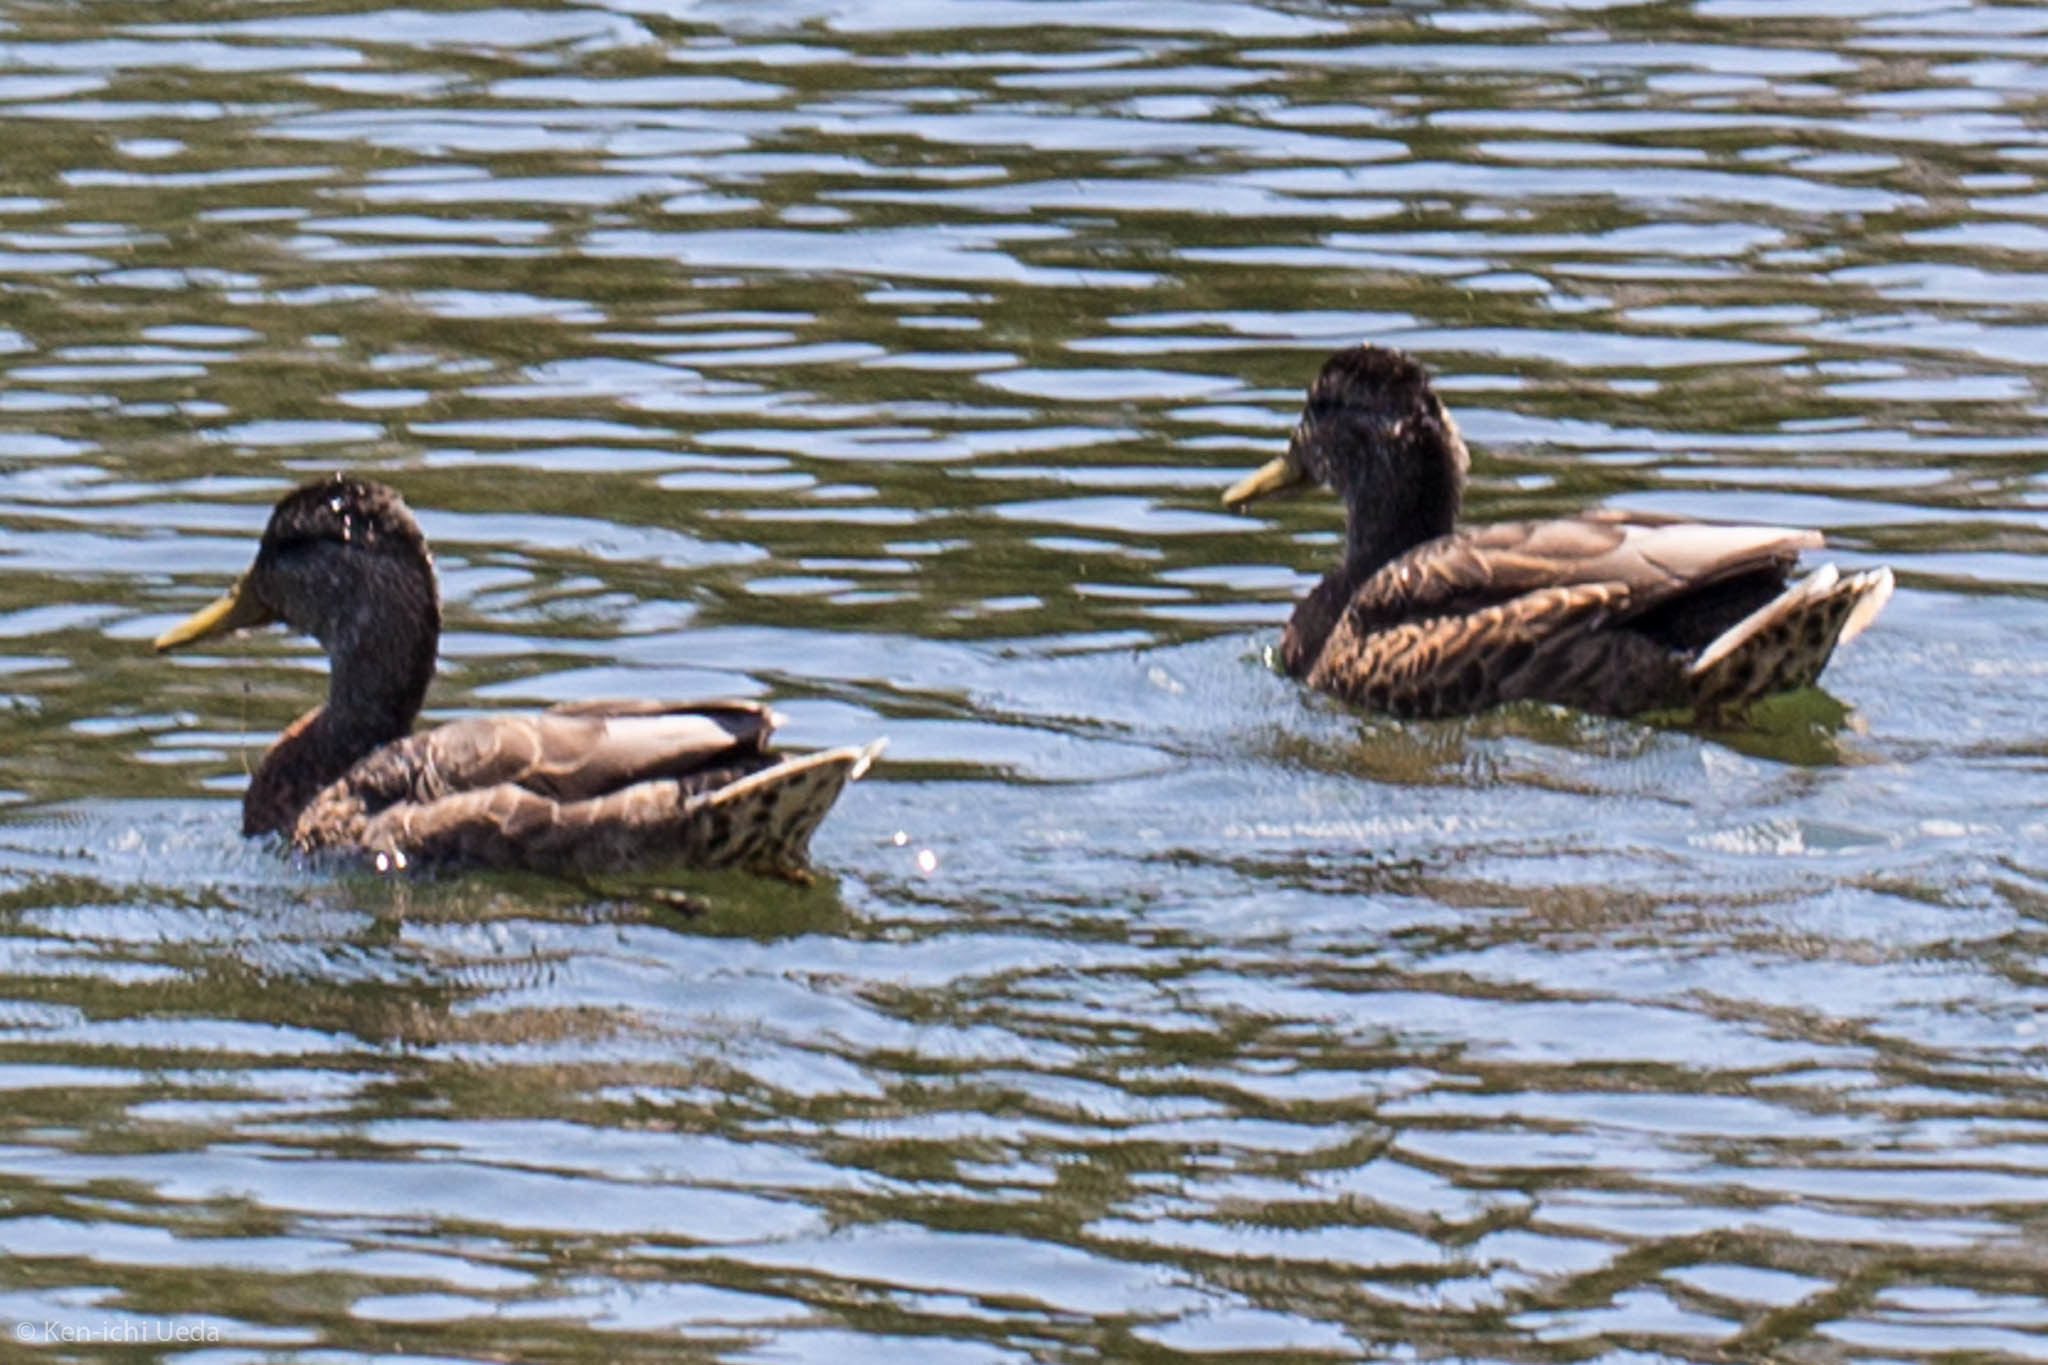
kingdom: Animalia
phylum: Chordata
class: Aves
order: Anseriformes
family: Anatidae
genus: Anas
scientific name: Anas platyrhynchos
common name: Mallard
